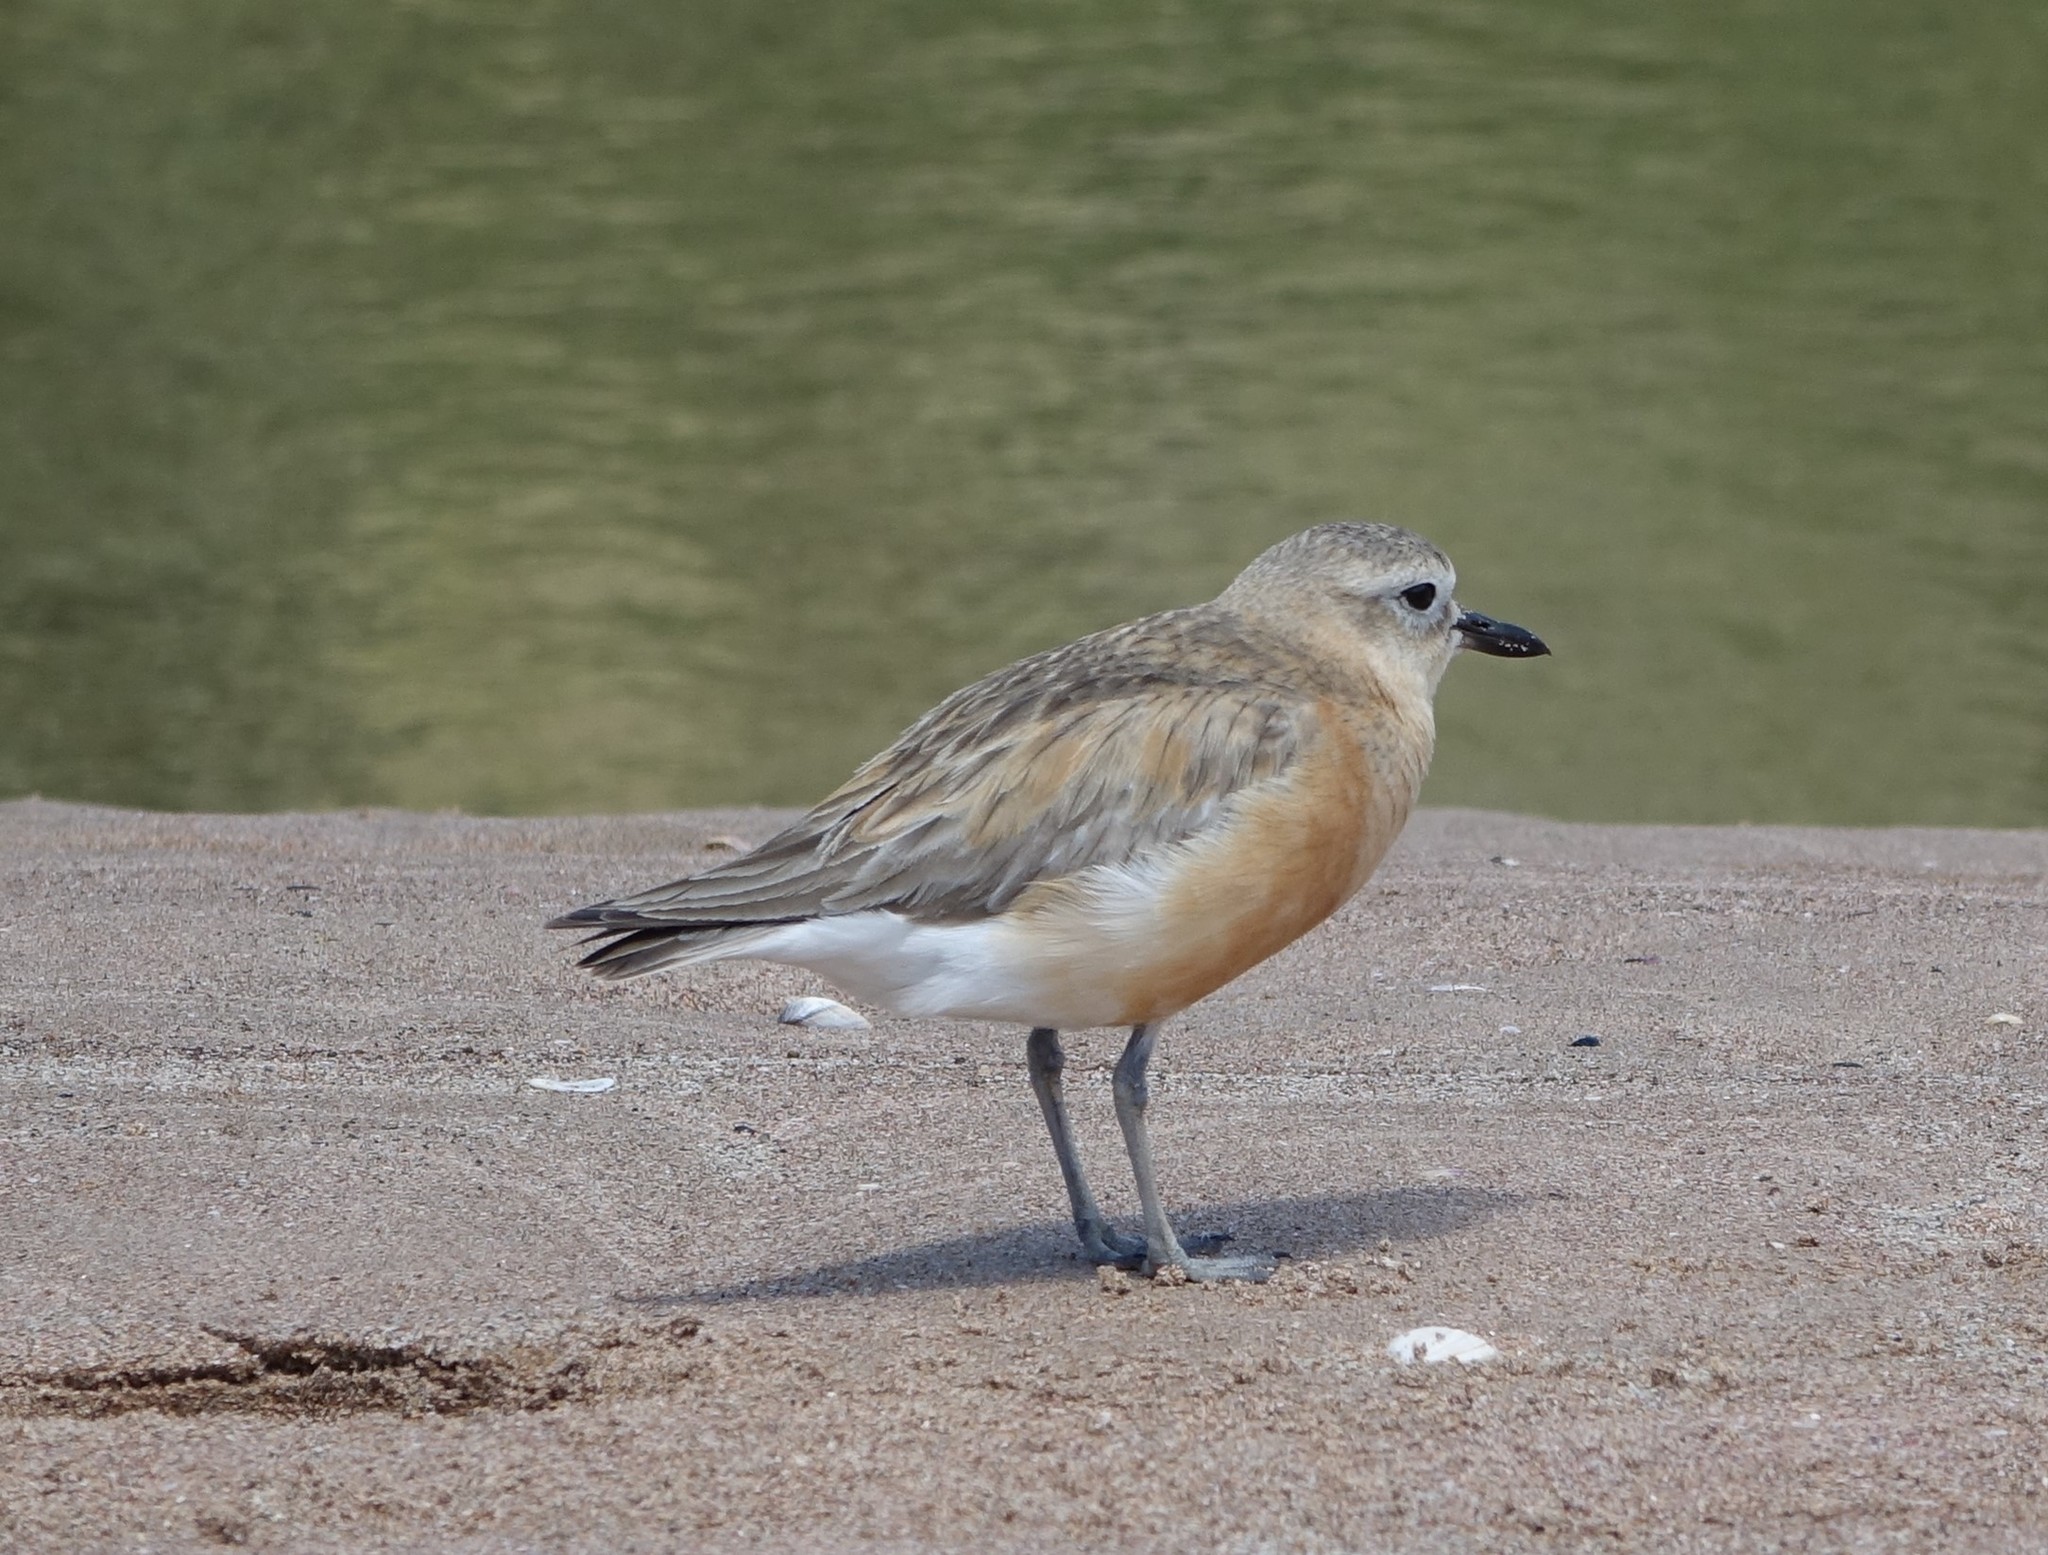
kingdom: Animalia
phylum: Chordata
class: Aves
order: Charadriiformes
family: Charadriidae
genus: Anarhynchus
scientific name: Anarhynchus
